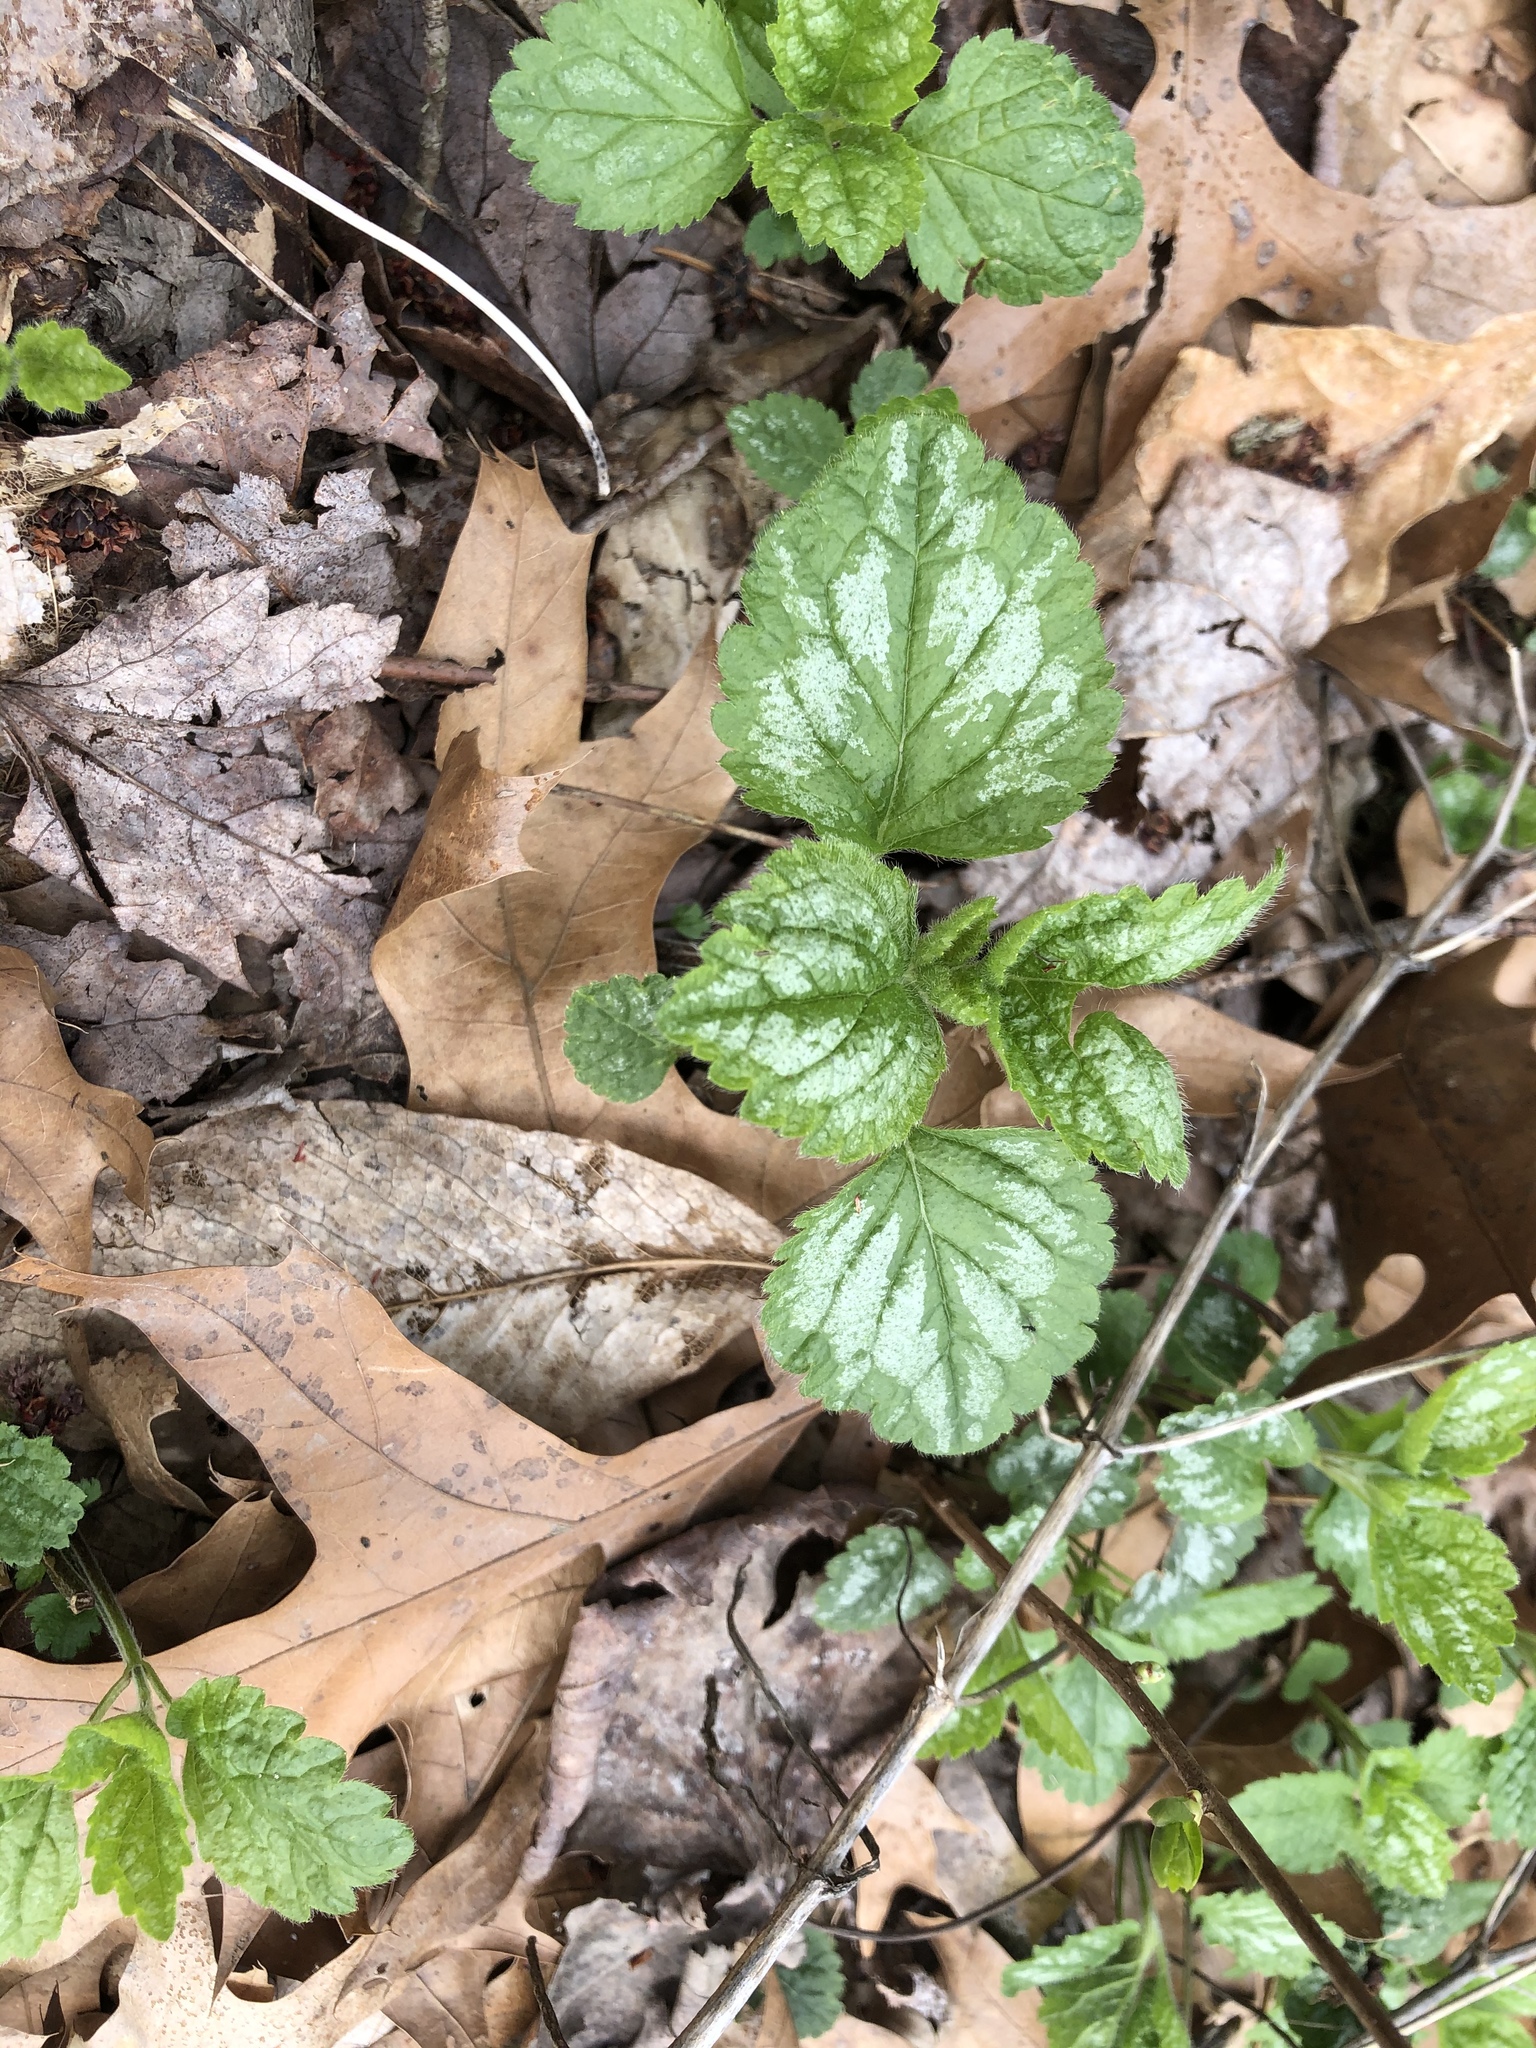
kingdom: Plantae
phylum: Tracheophyta
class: Magnoliopsida
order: Lamiales
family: Lamiaceae
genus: Lamium
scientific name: Lamium galeobdolon
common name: Yellow archangel
